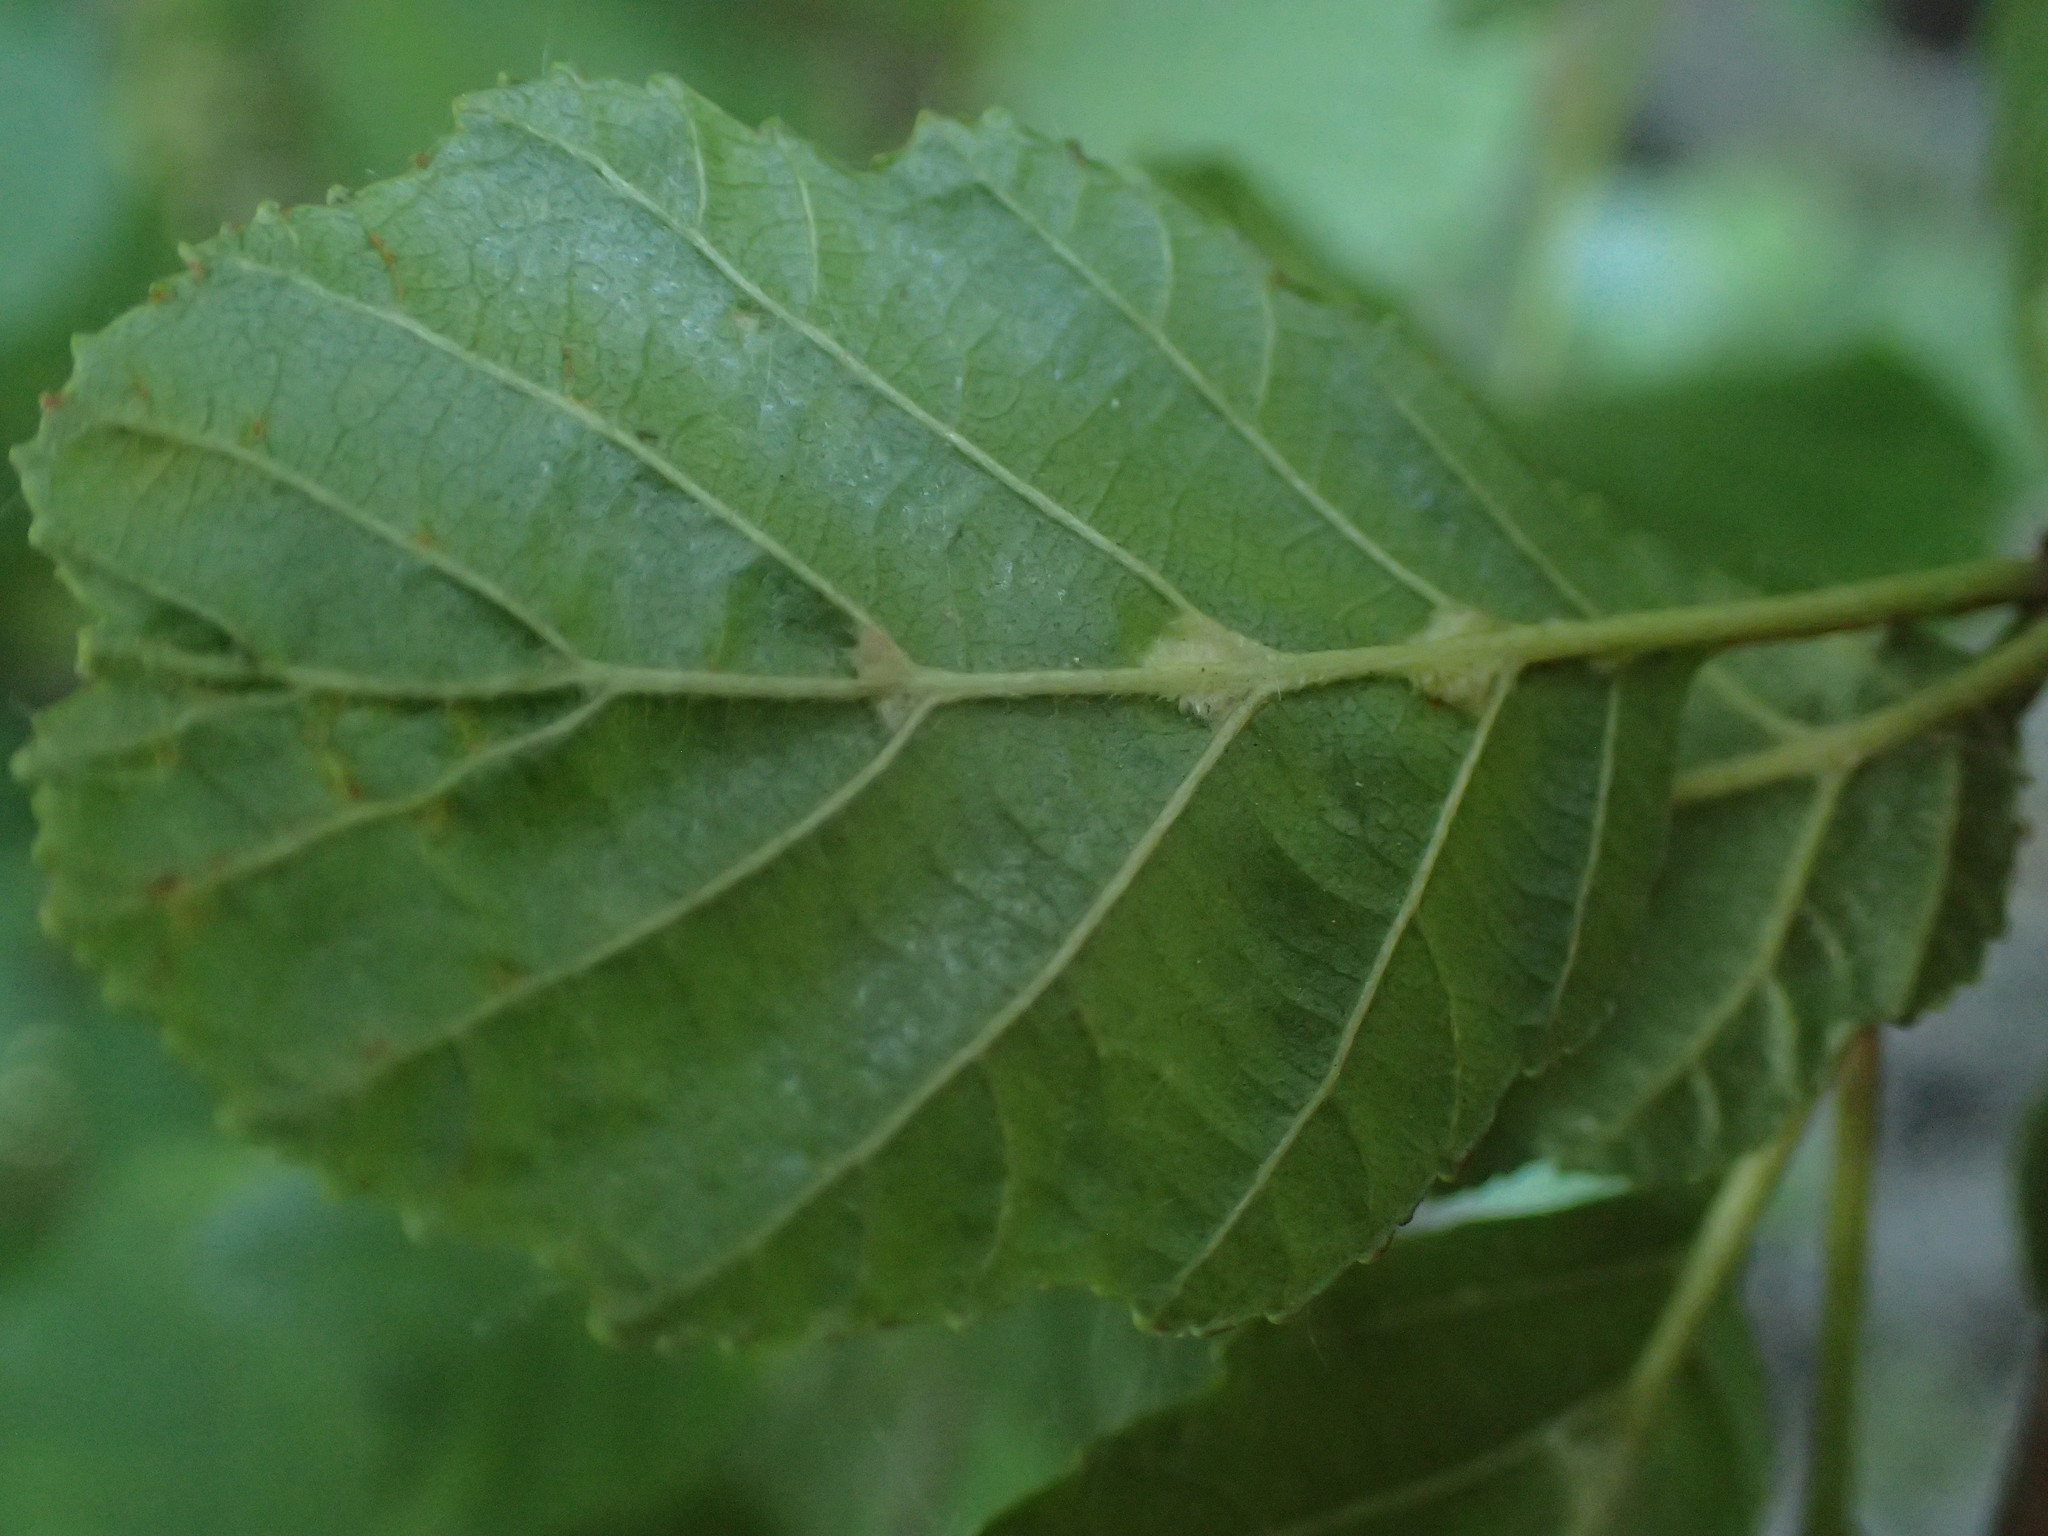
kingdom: Animalia
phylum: Arthropoda
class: Arachnida
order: Trombidiformes
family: Eriophyidae
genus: Eriophyes
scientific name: Eriophyes inangulis
